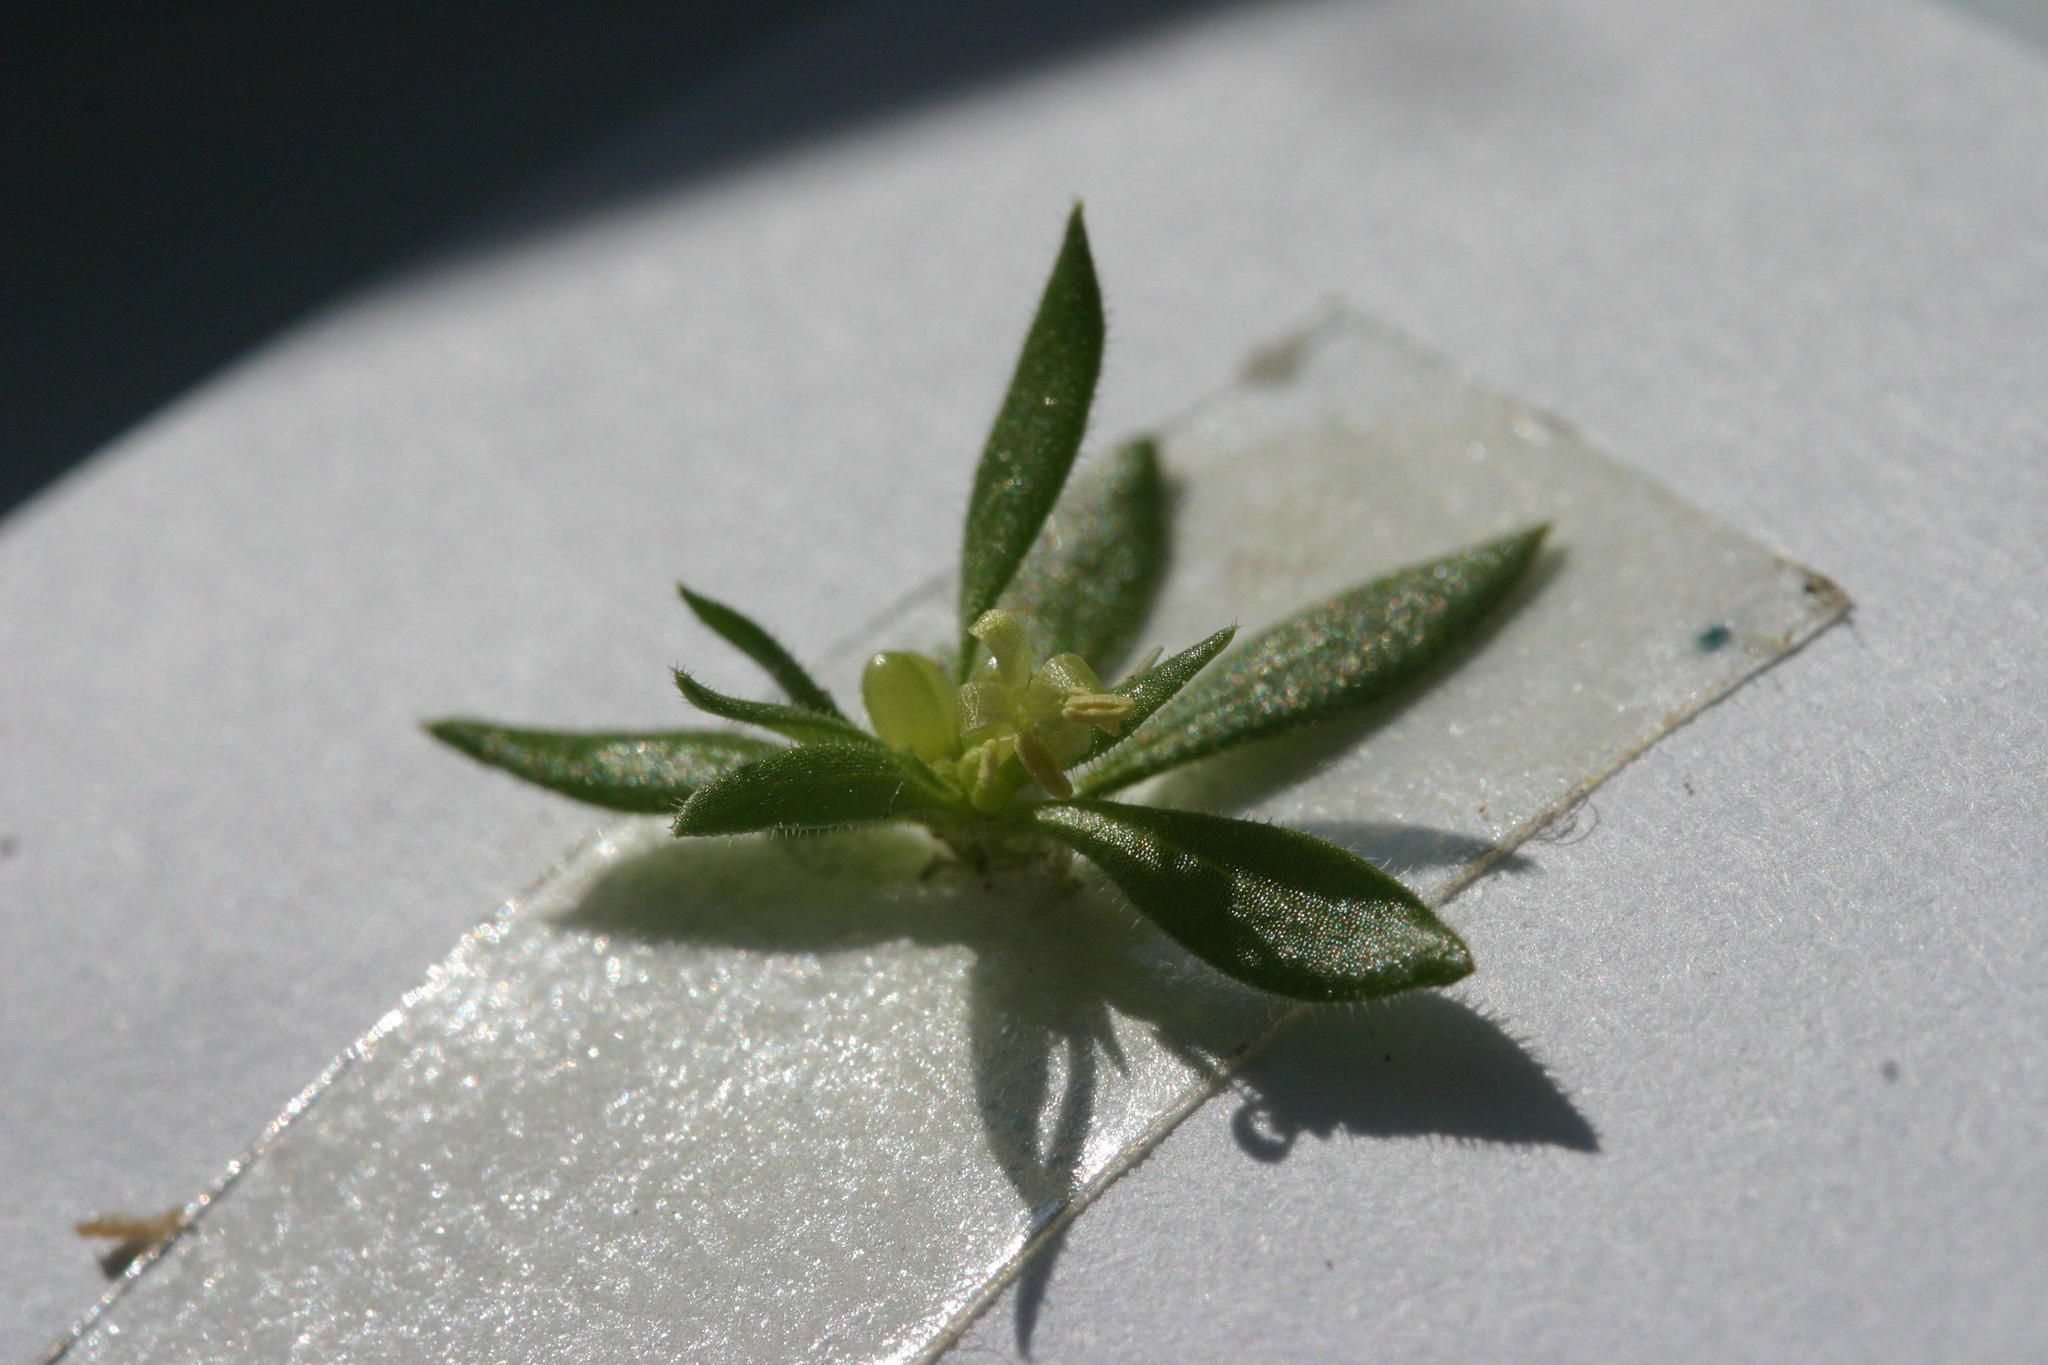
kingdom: Plantae
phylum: Tracheophyta
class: Magnoliopsida
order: Gentianales
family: Rubiaceae
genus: Anthospermum
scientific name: Anthospermum galioides
